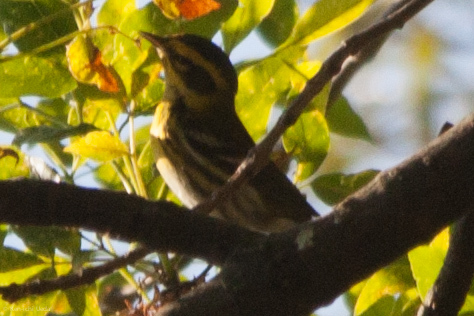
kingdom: Animalia
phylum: Chordata
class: Aves
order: Passeriformes
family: Parulidae
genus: Setophaga
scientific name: Setophaga townsendi
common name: Townsend's warbler
